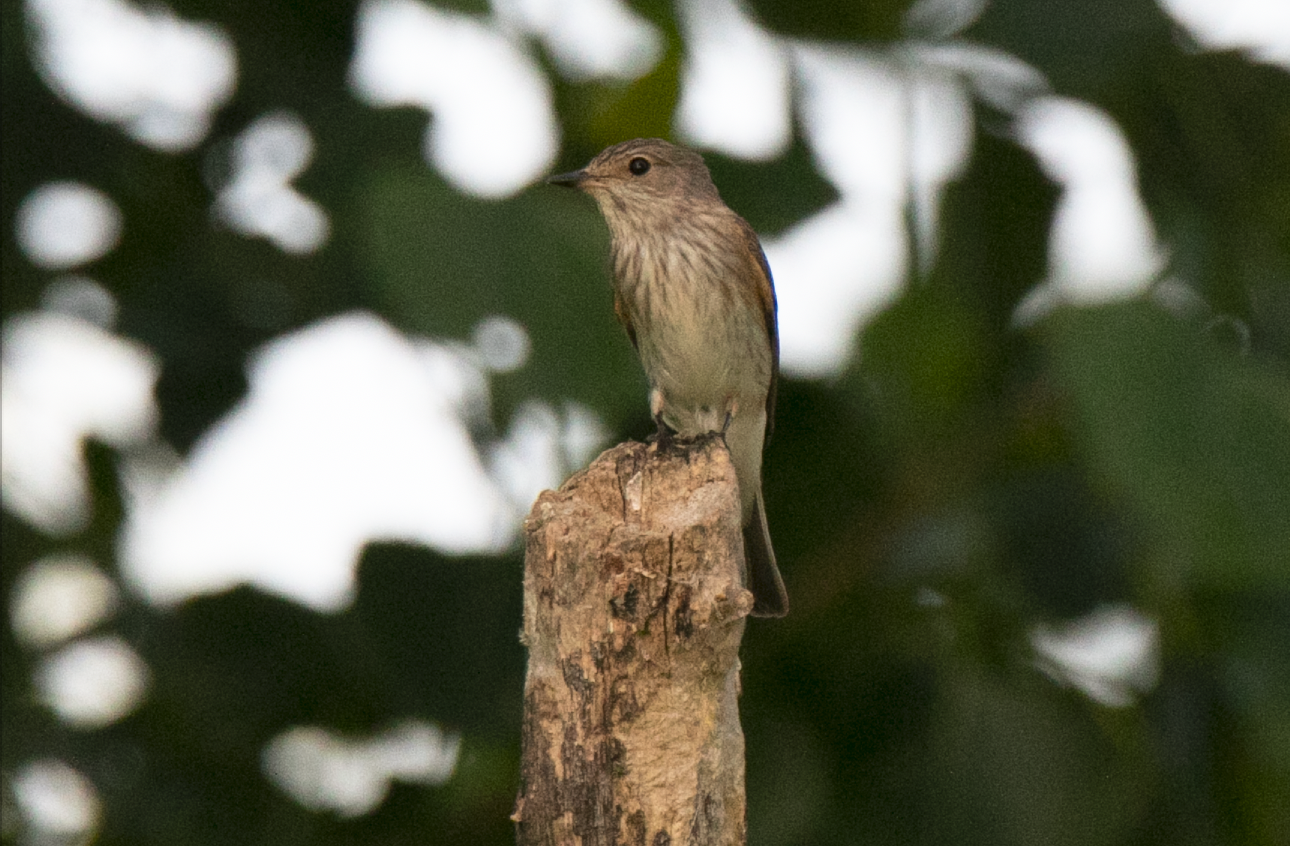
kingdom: Animalia
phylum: Chordata
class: Aves
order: Passeriformes
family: Muscicapidae
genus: Muscicapa
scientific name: Muscicapa striata
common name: Spotted flycatcher
